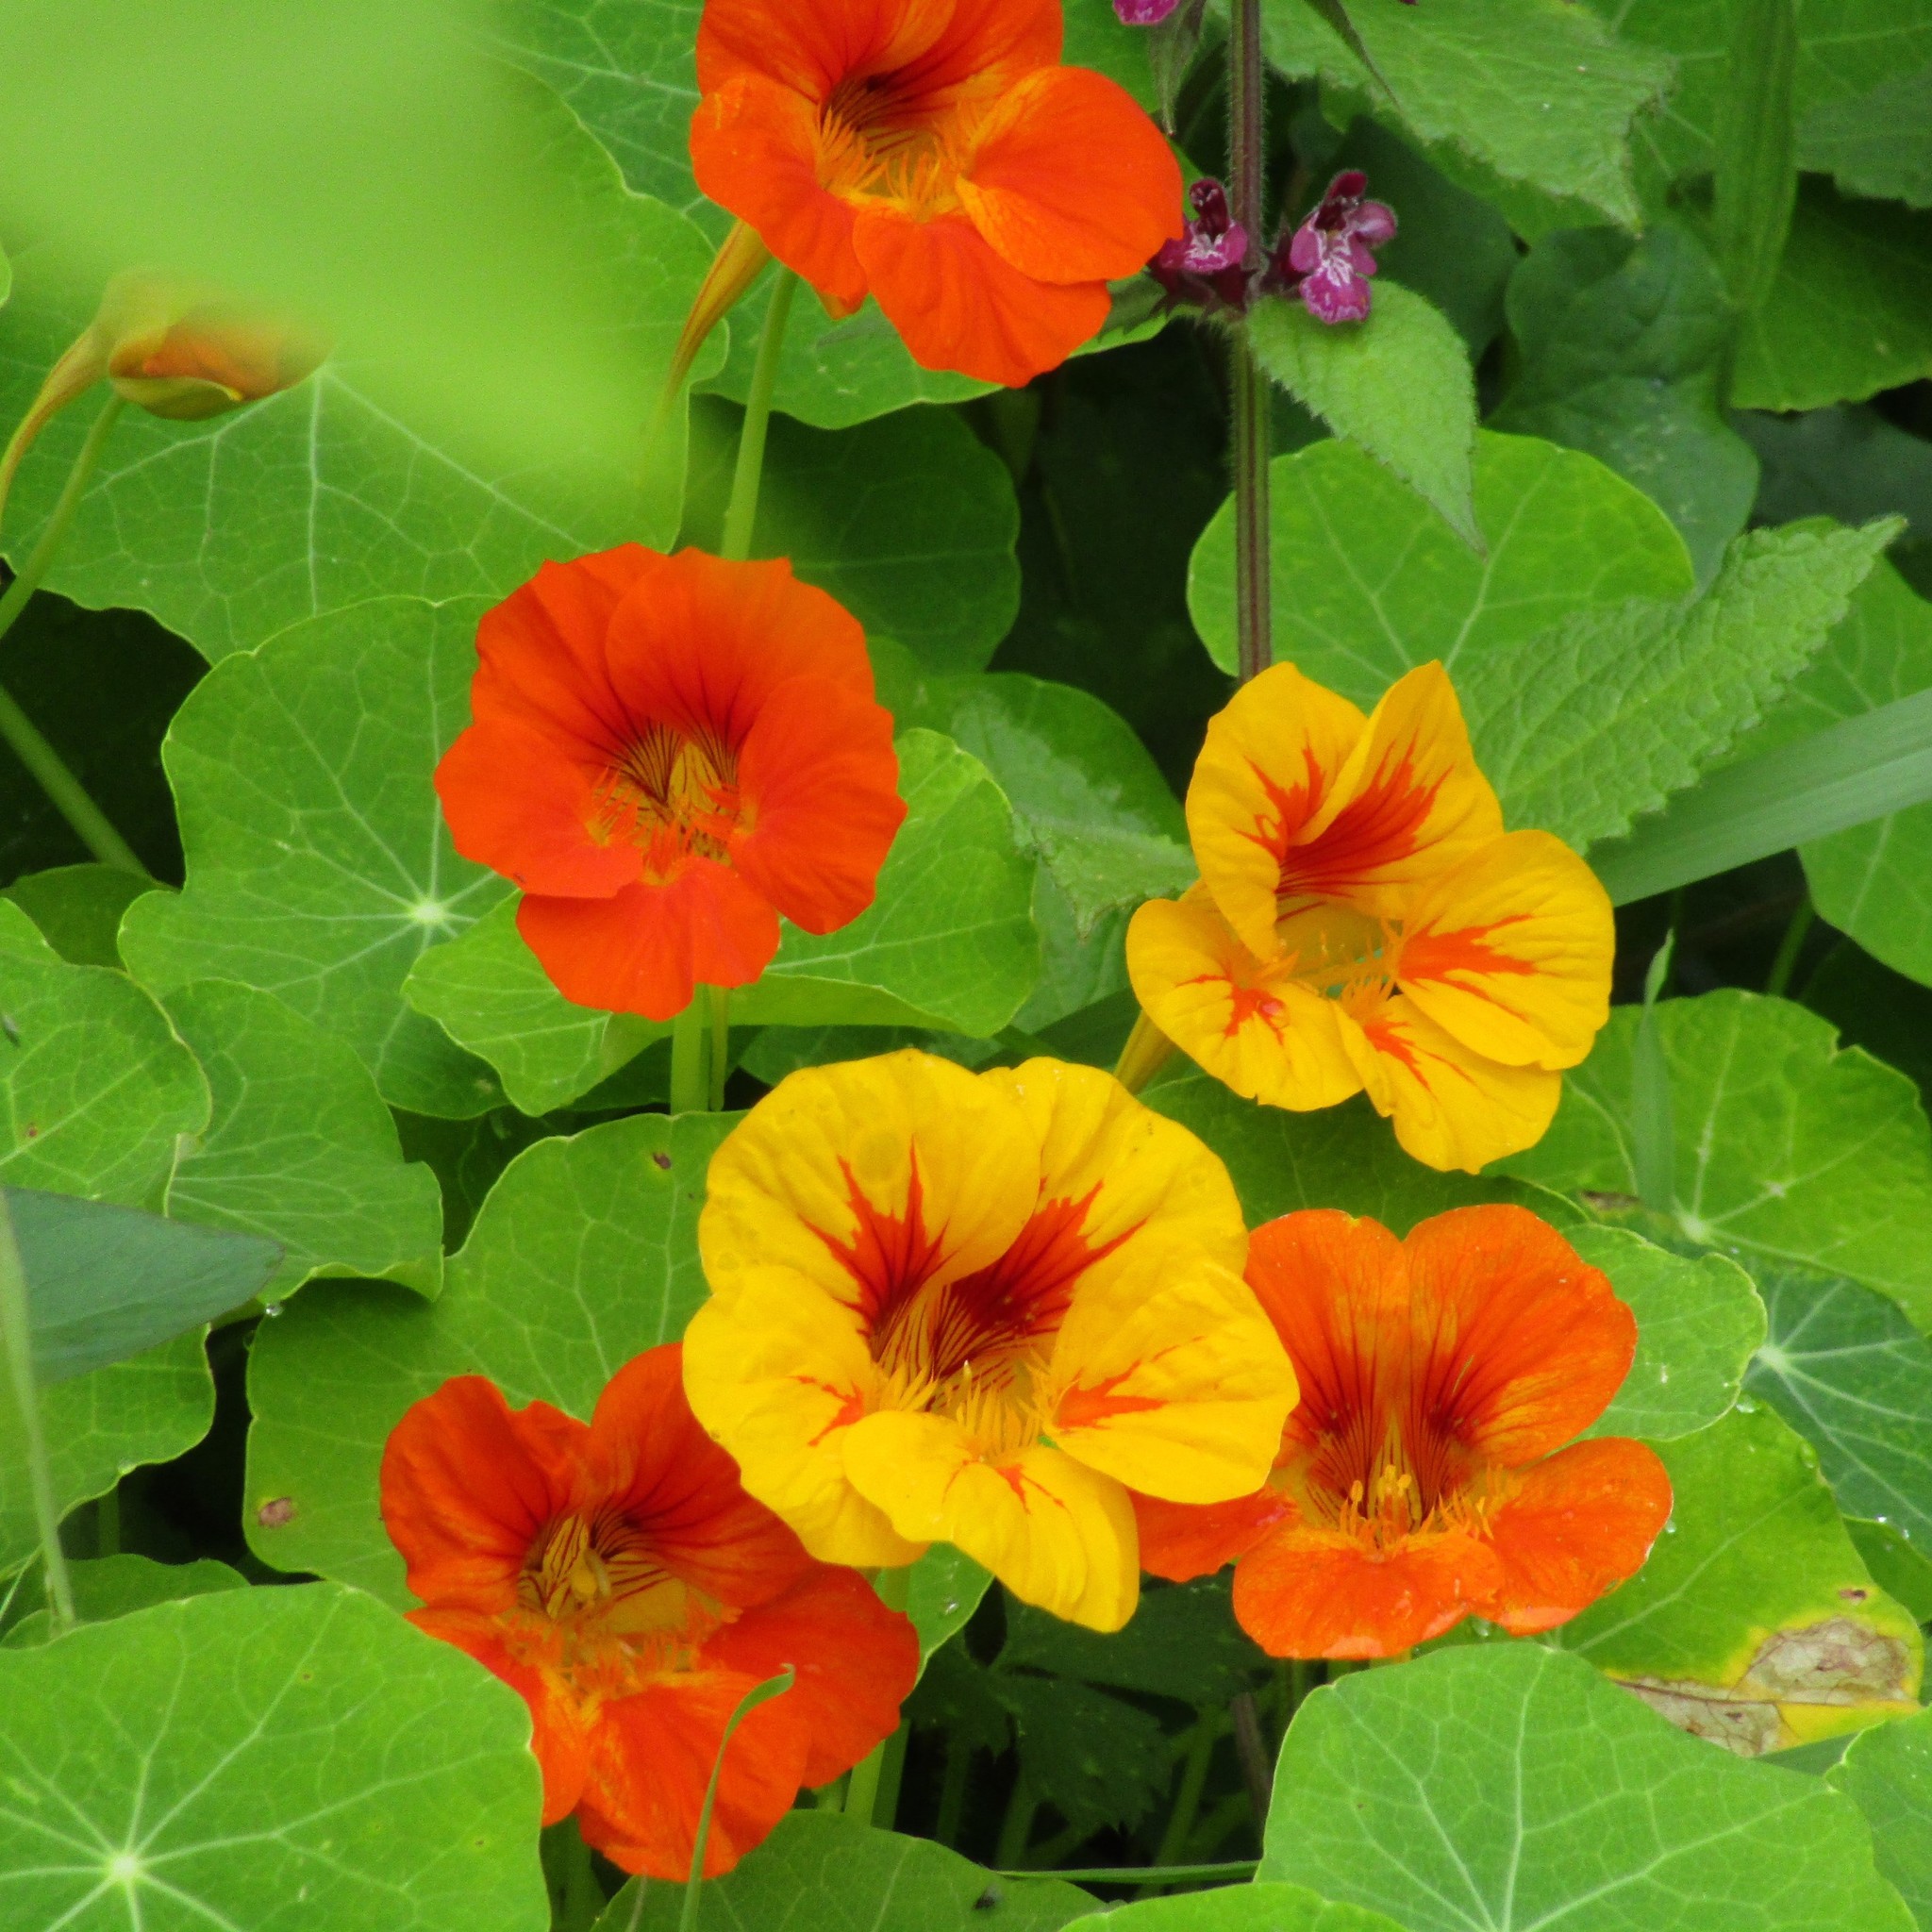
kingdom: Plantae
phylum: Tracheophyta
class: Magnoliopsida
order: Brassicales
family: Tropaeolaceae
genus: Tropaeolum
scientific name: Tropaeolum majus
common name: Nasturtium
